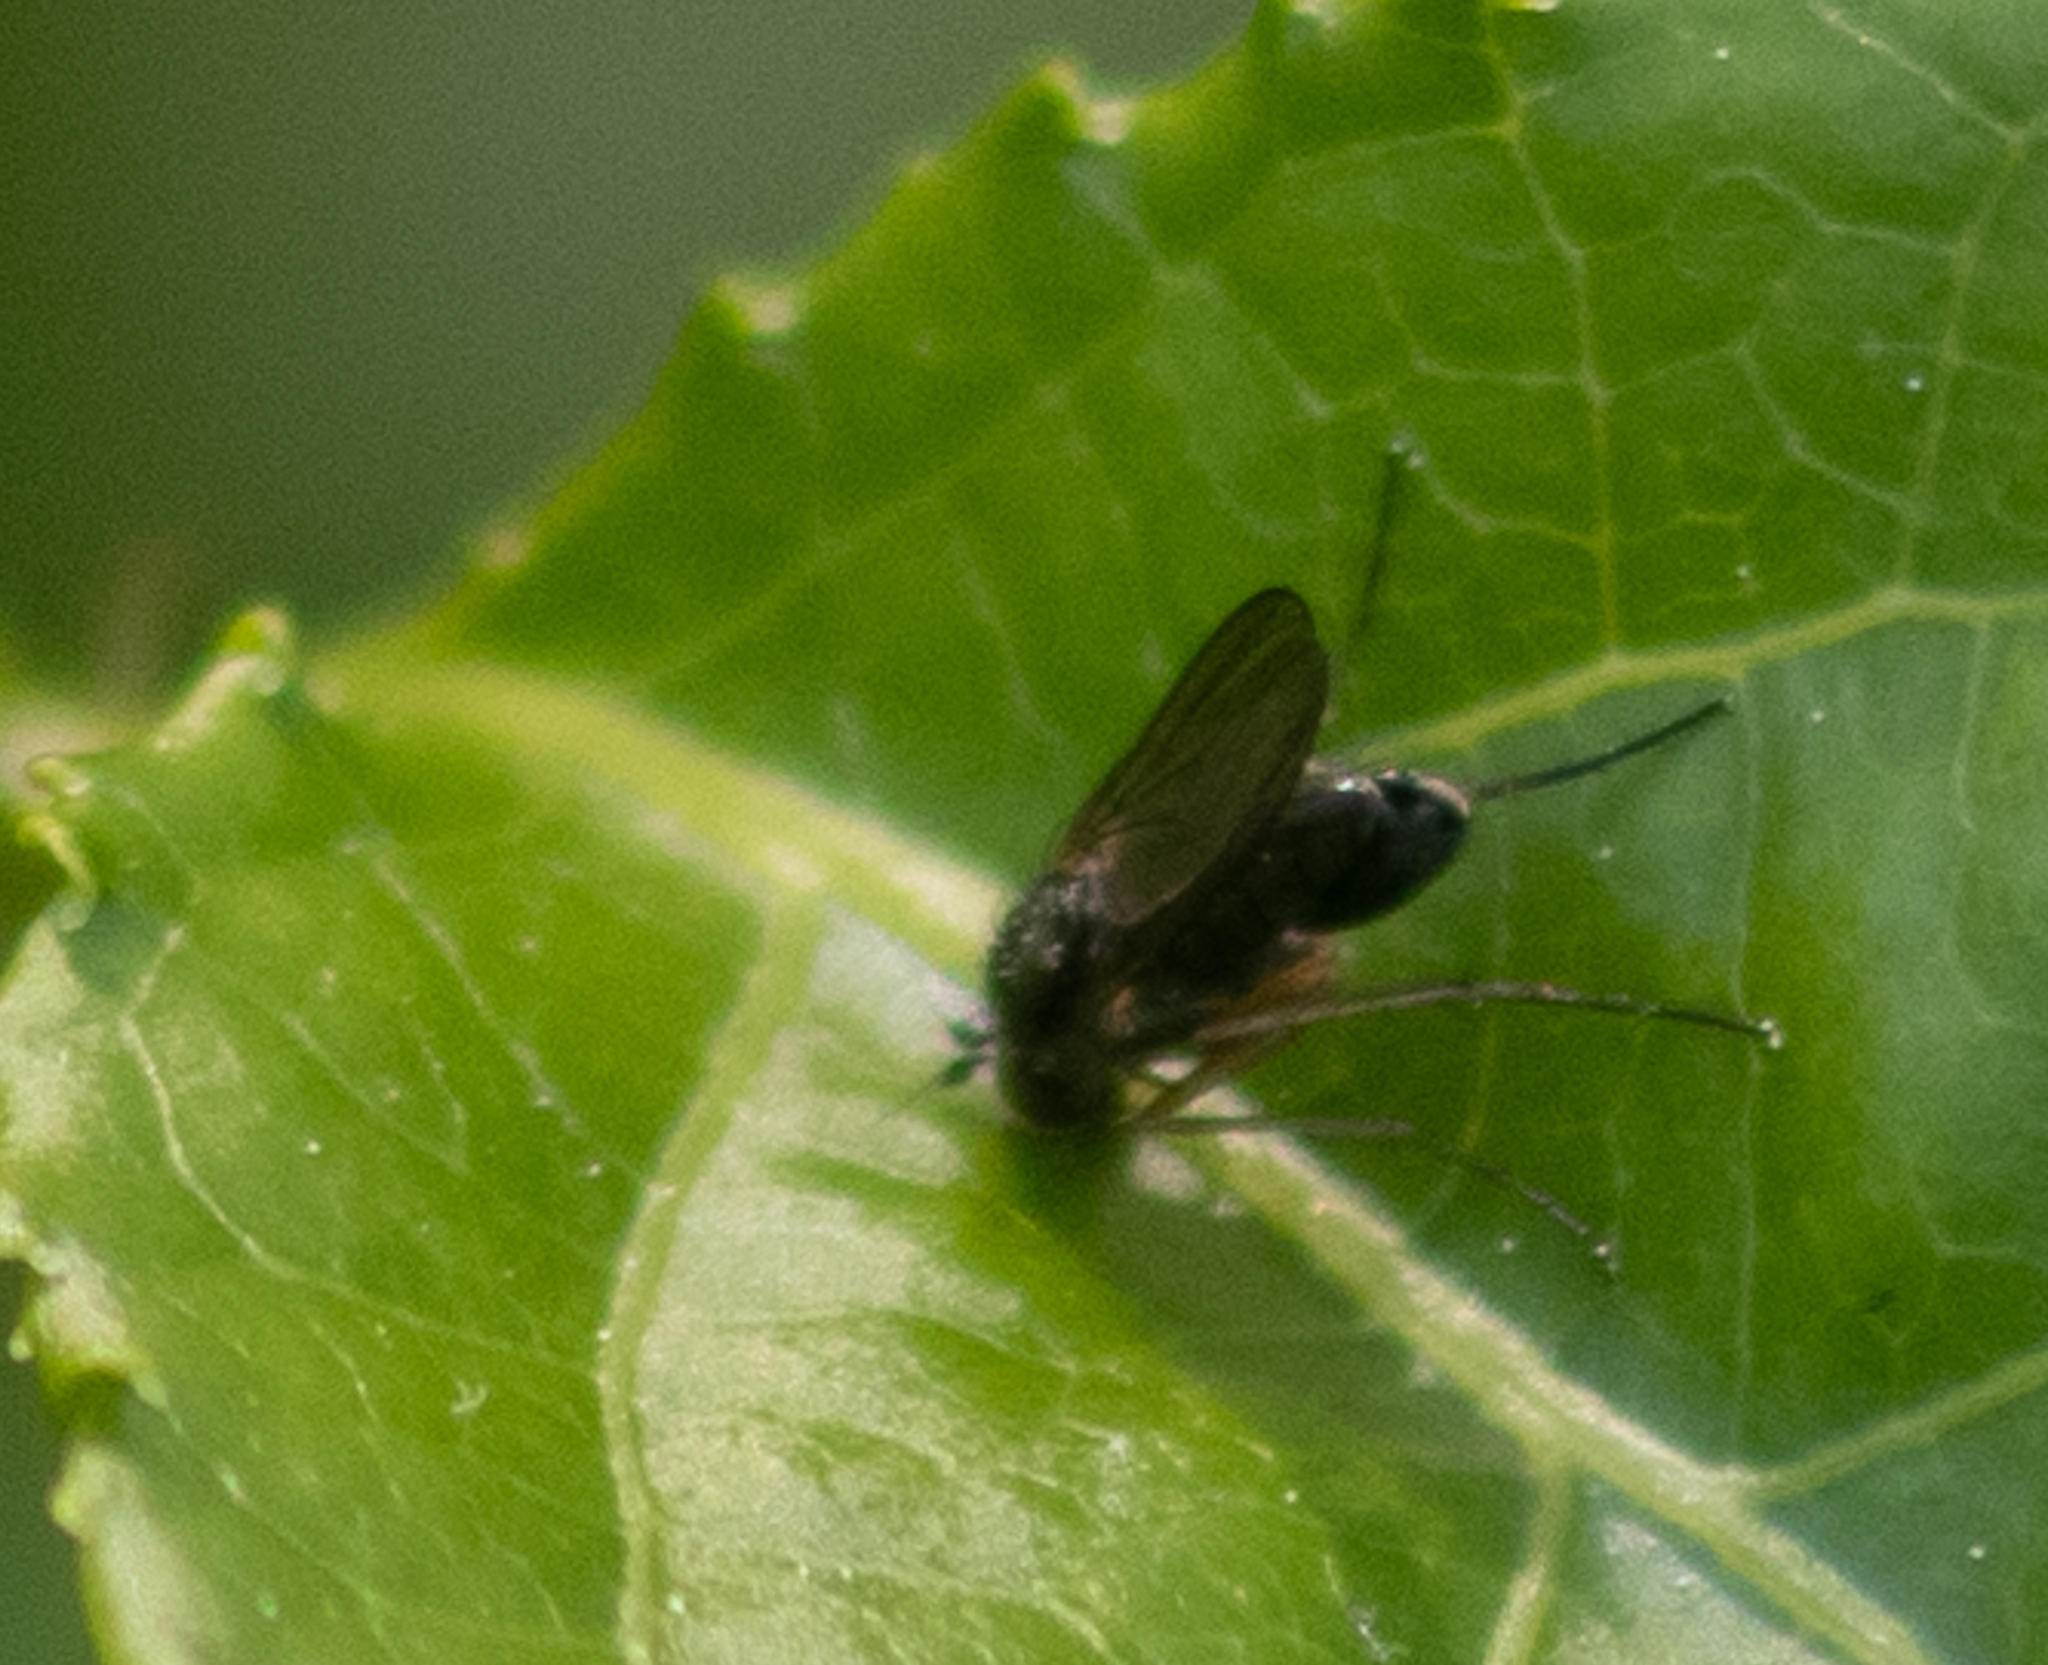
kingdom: Animalia
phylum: Arthropoda
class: Insecta
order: Diptera
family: Dolichopodidae
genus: Gymnopternus
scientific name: Gymnopternus
